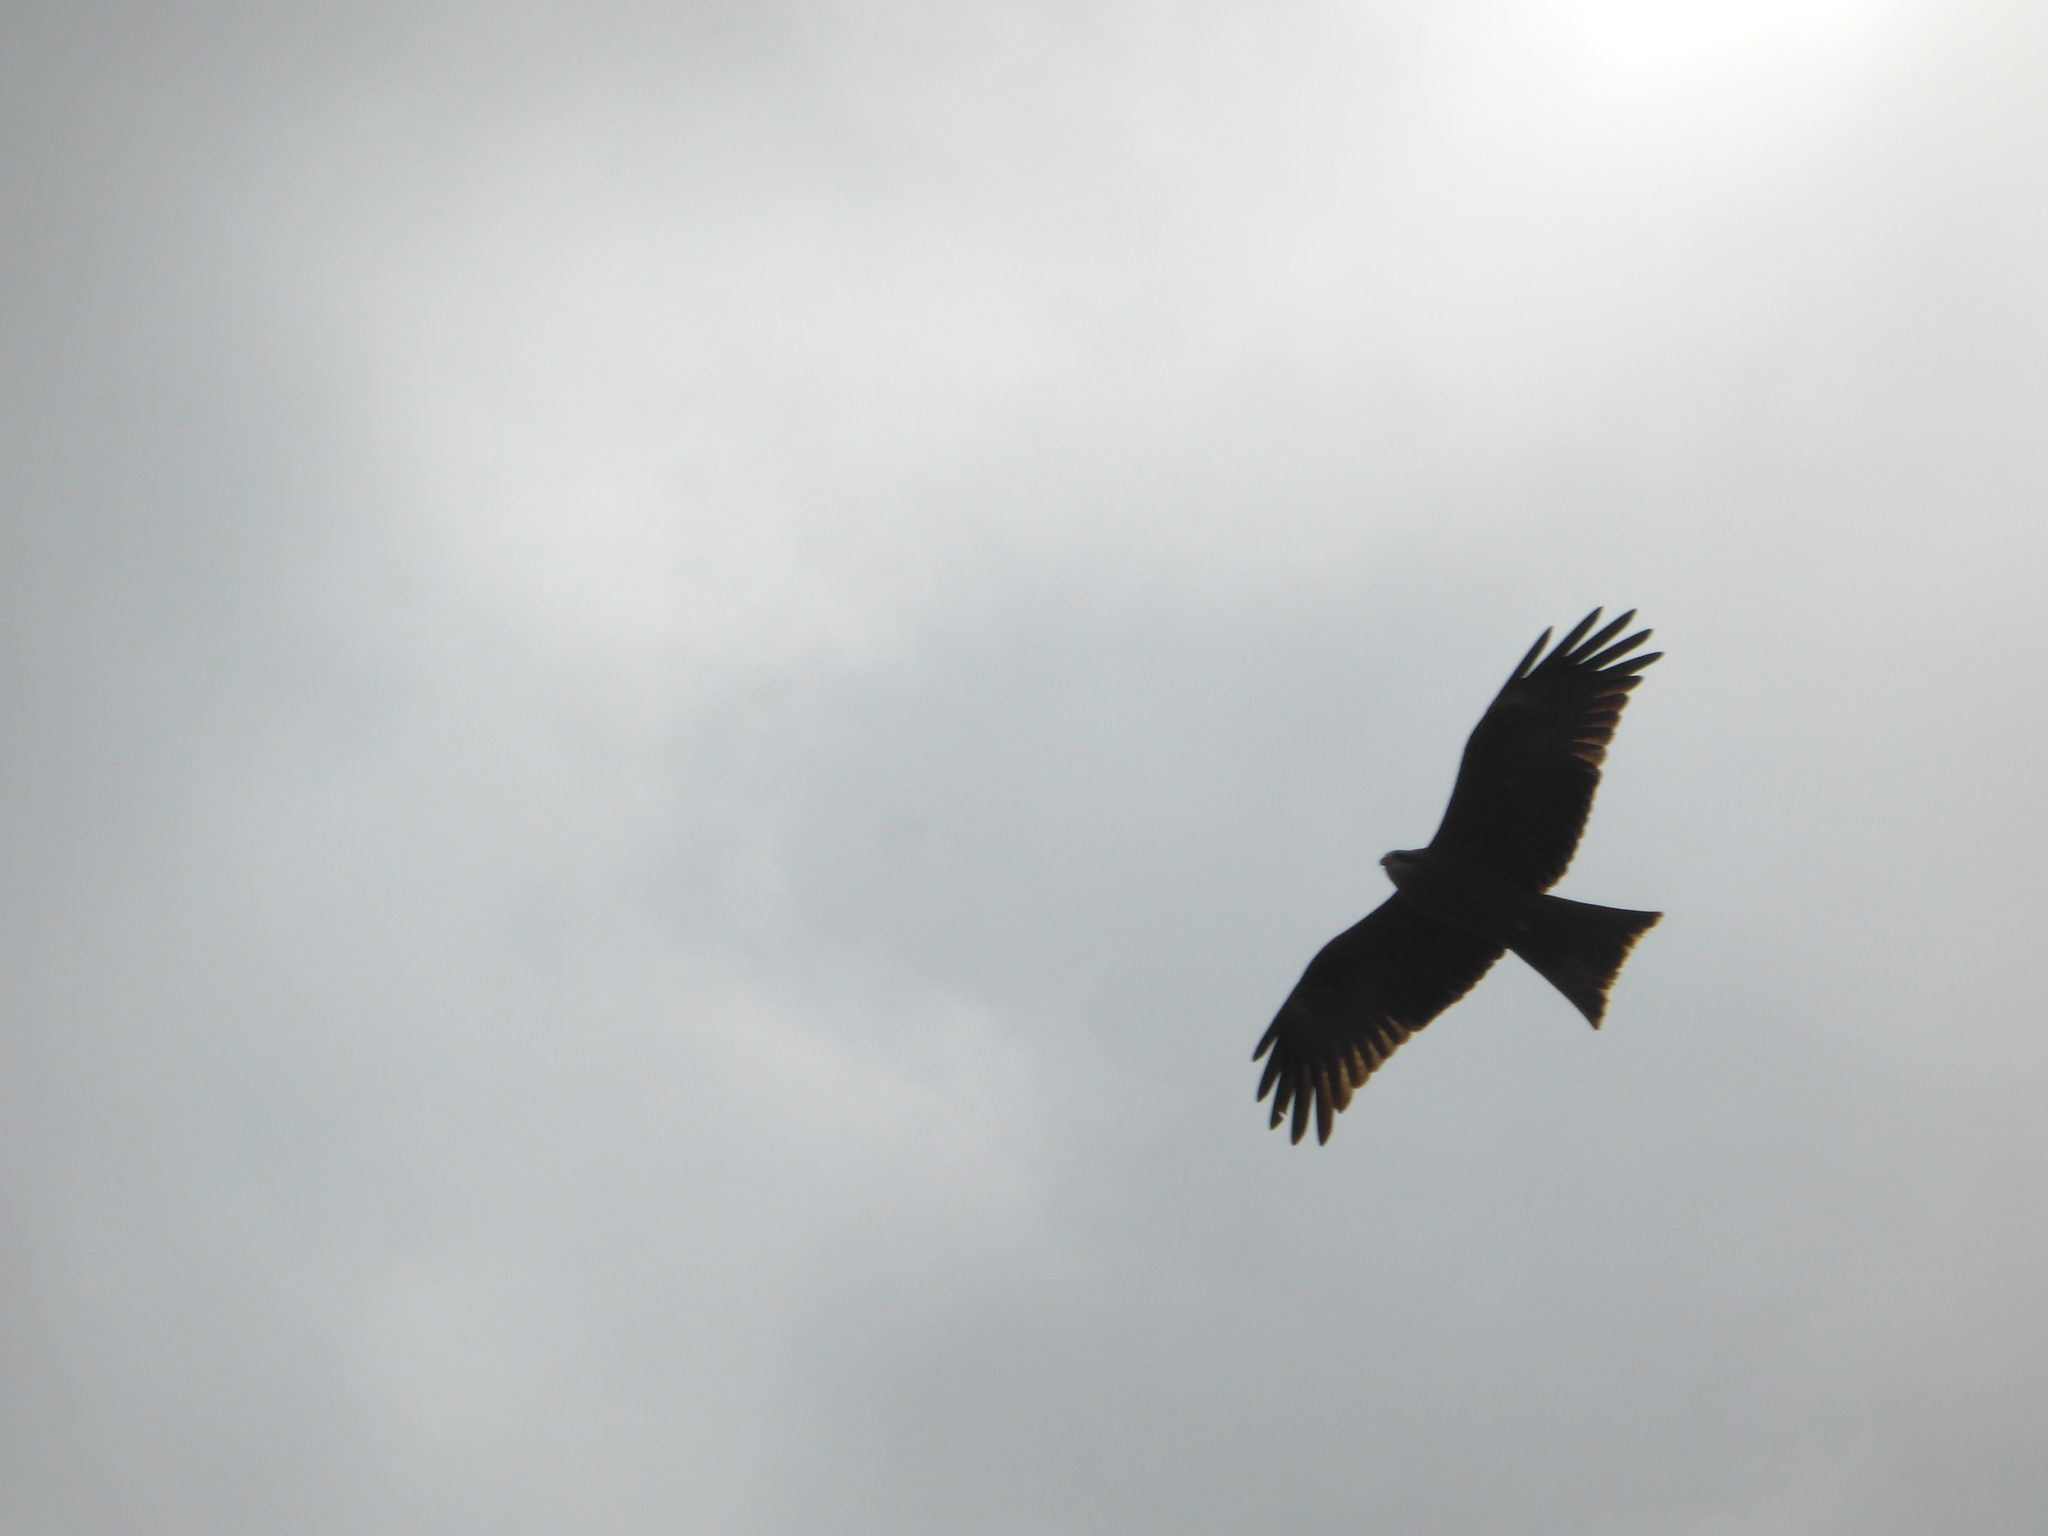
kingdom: Animalia
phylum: Chordata
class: Aves
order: Accipitriformes
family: Accipitridae
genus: Milvus
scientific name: Milvus migrans
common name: Black kite
